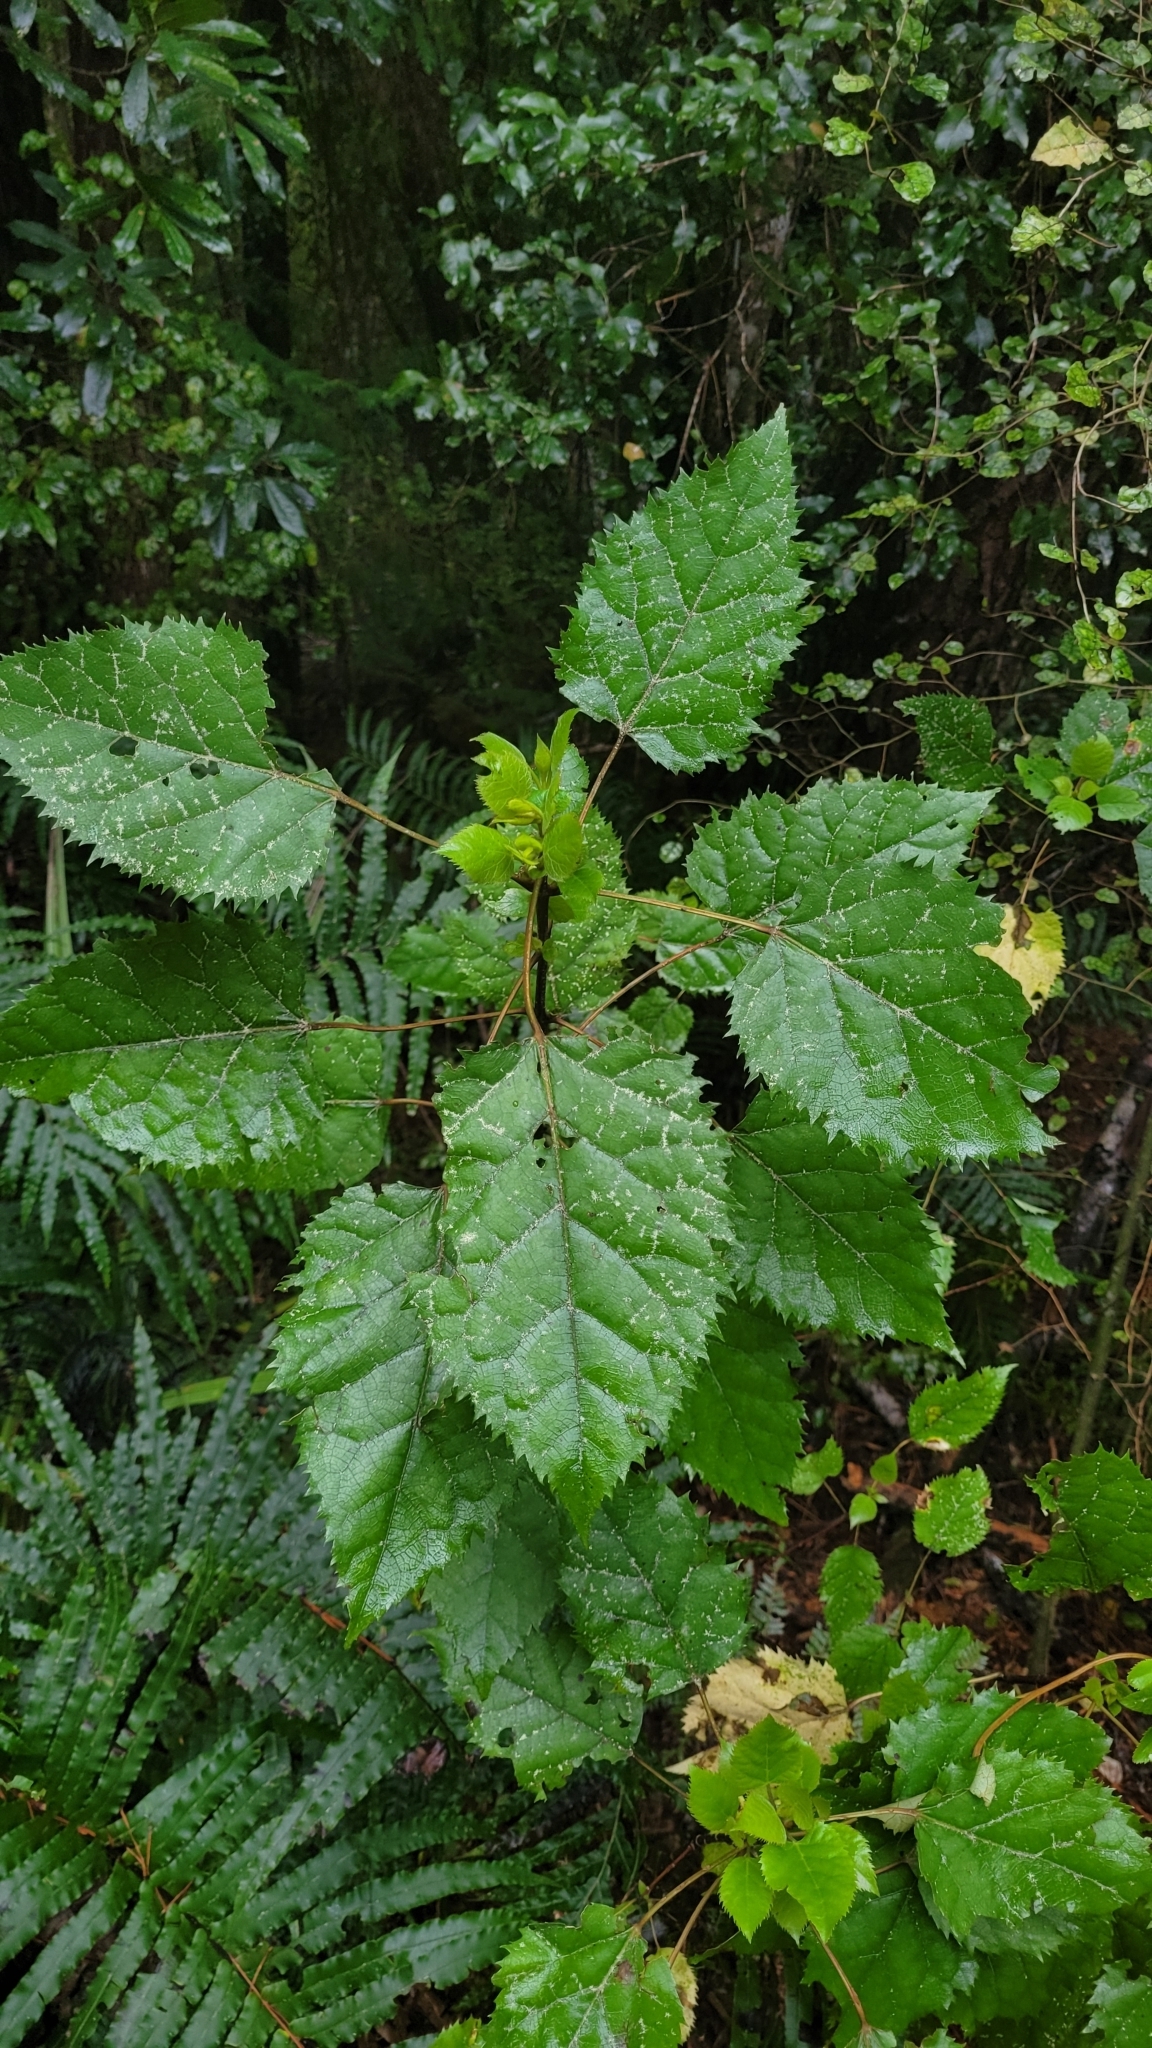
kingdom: Plantae
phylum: Tracheophyta
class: Magnoliopsida
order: Oxalidales
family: Elaeocarpaceae
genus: Aristotelia
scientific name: Aristotelia serrata
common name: New zealand wineberry
